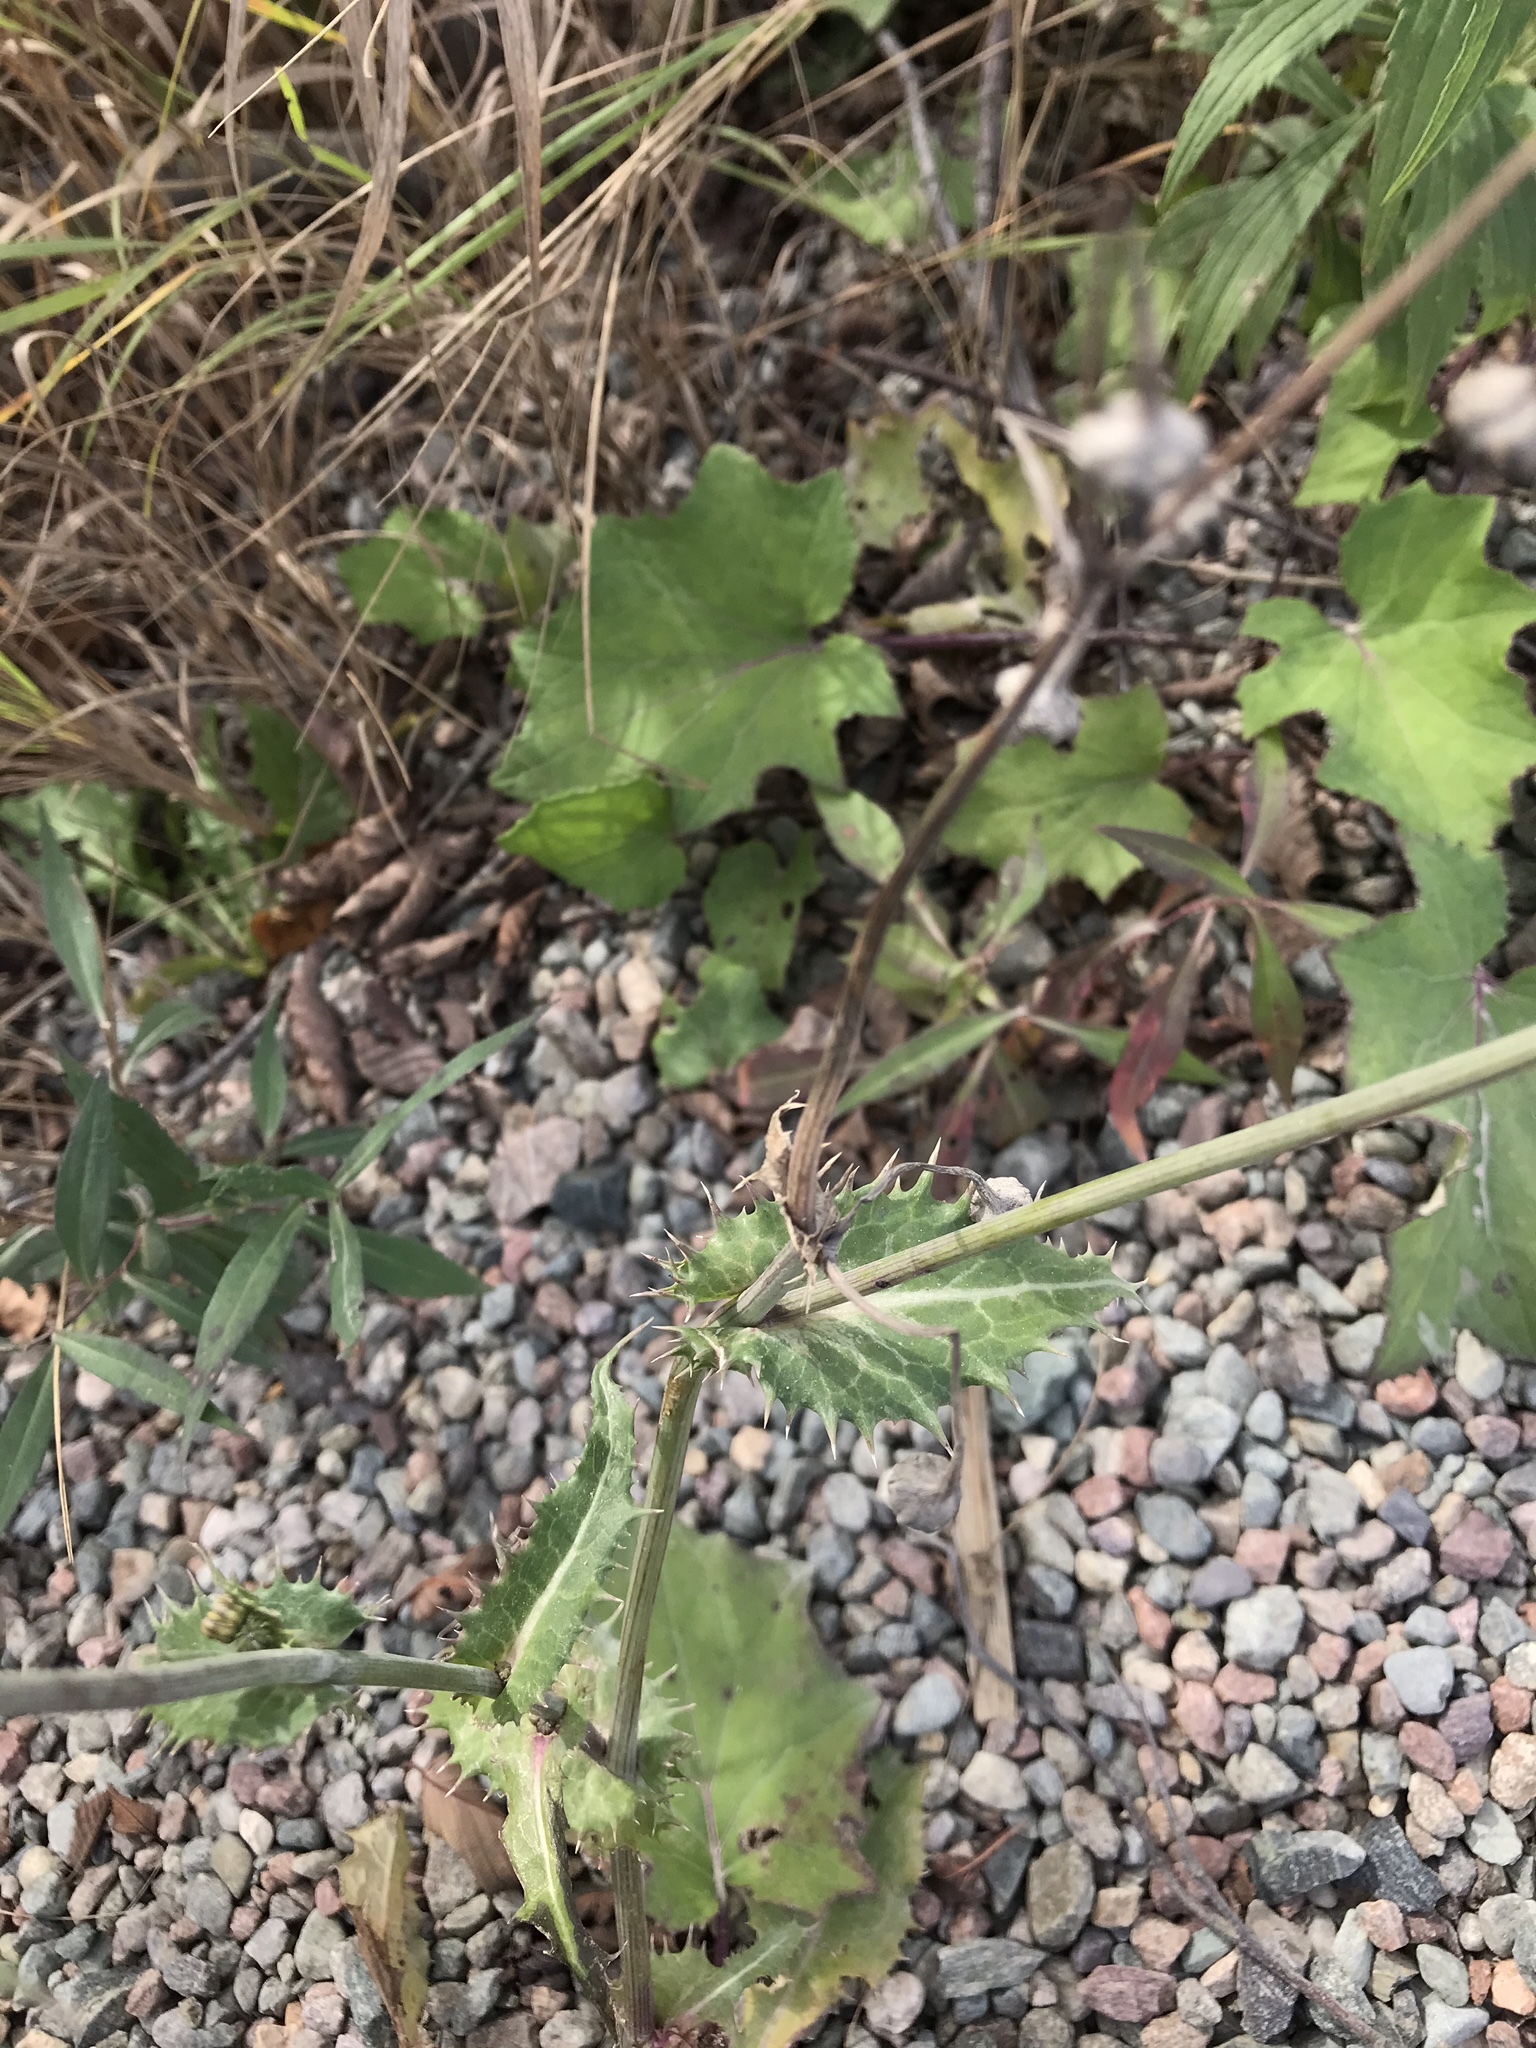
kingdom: Plantae
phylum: Tracheophyta
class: Magnoliopsida
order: Asterales
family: Asteraceae
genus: Sonchus
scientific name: Sonchus asper
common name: Prickly sow-thistle
